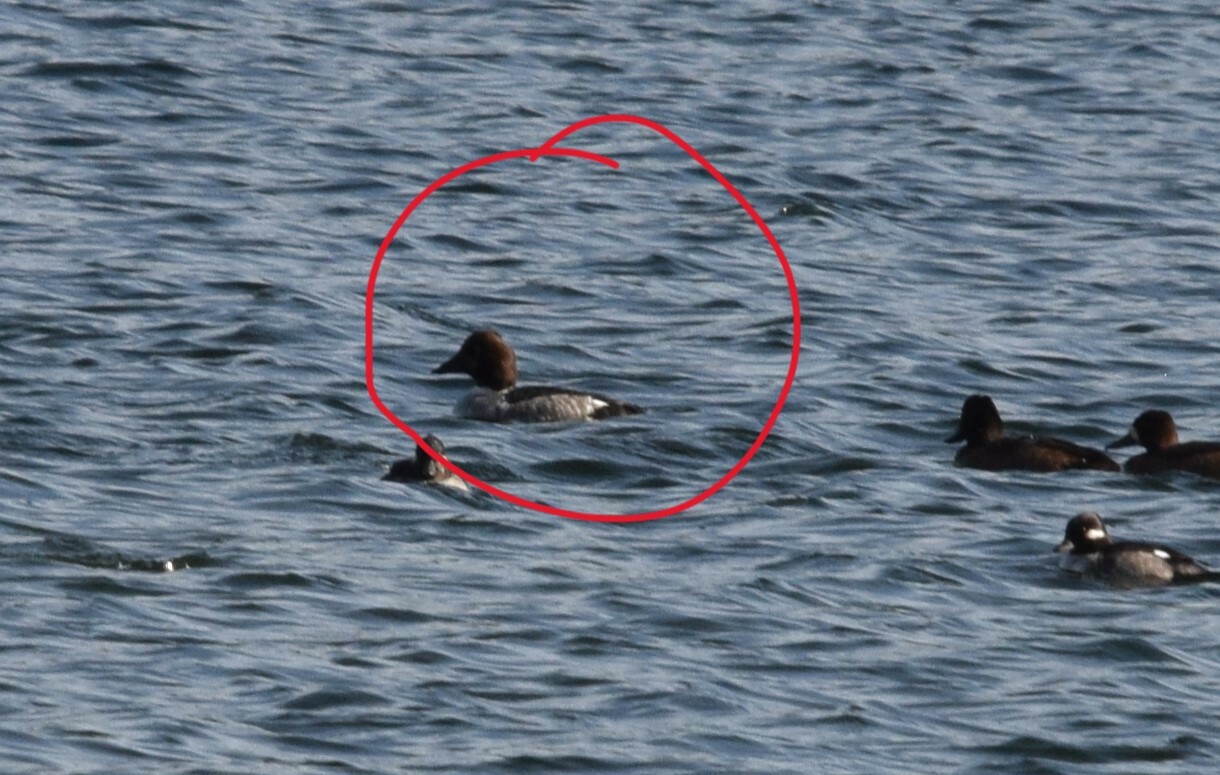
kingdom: Animalia
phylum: Chordata
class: Aves
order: Anseriformes
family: Anatidae
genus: Bucephala
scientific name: Bucephala clangula
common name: Common goldeneye
